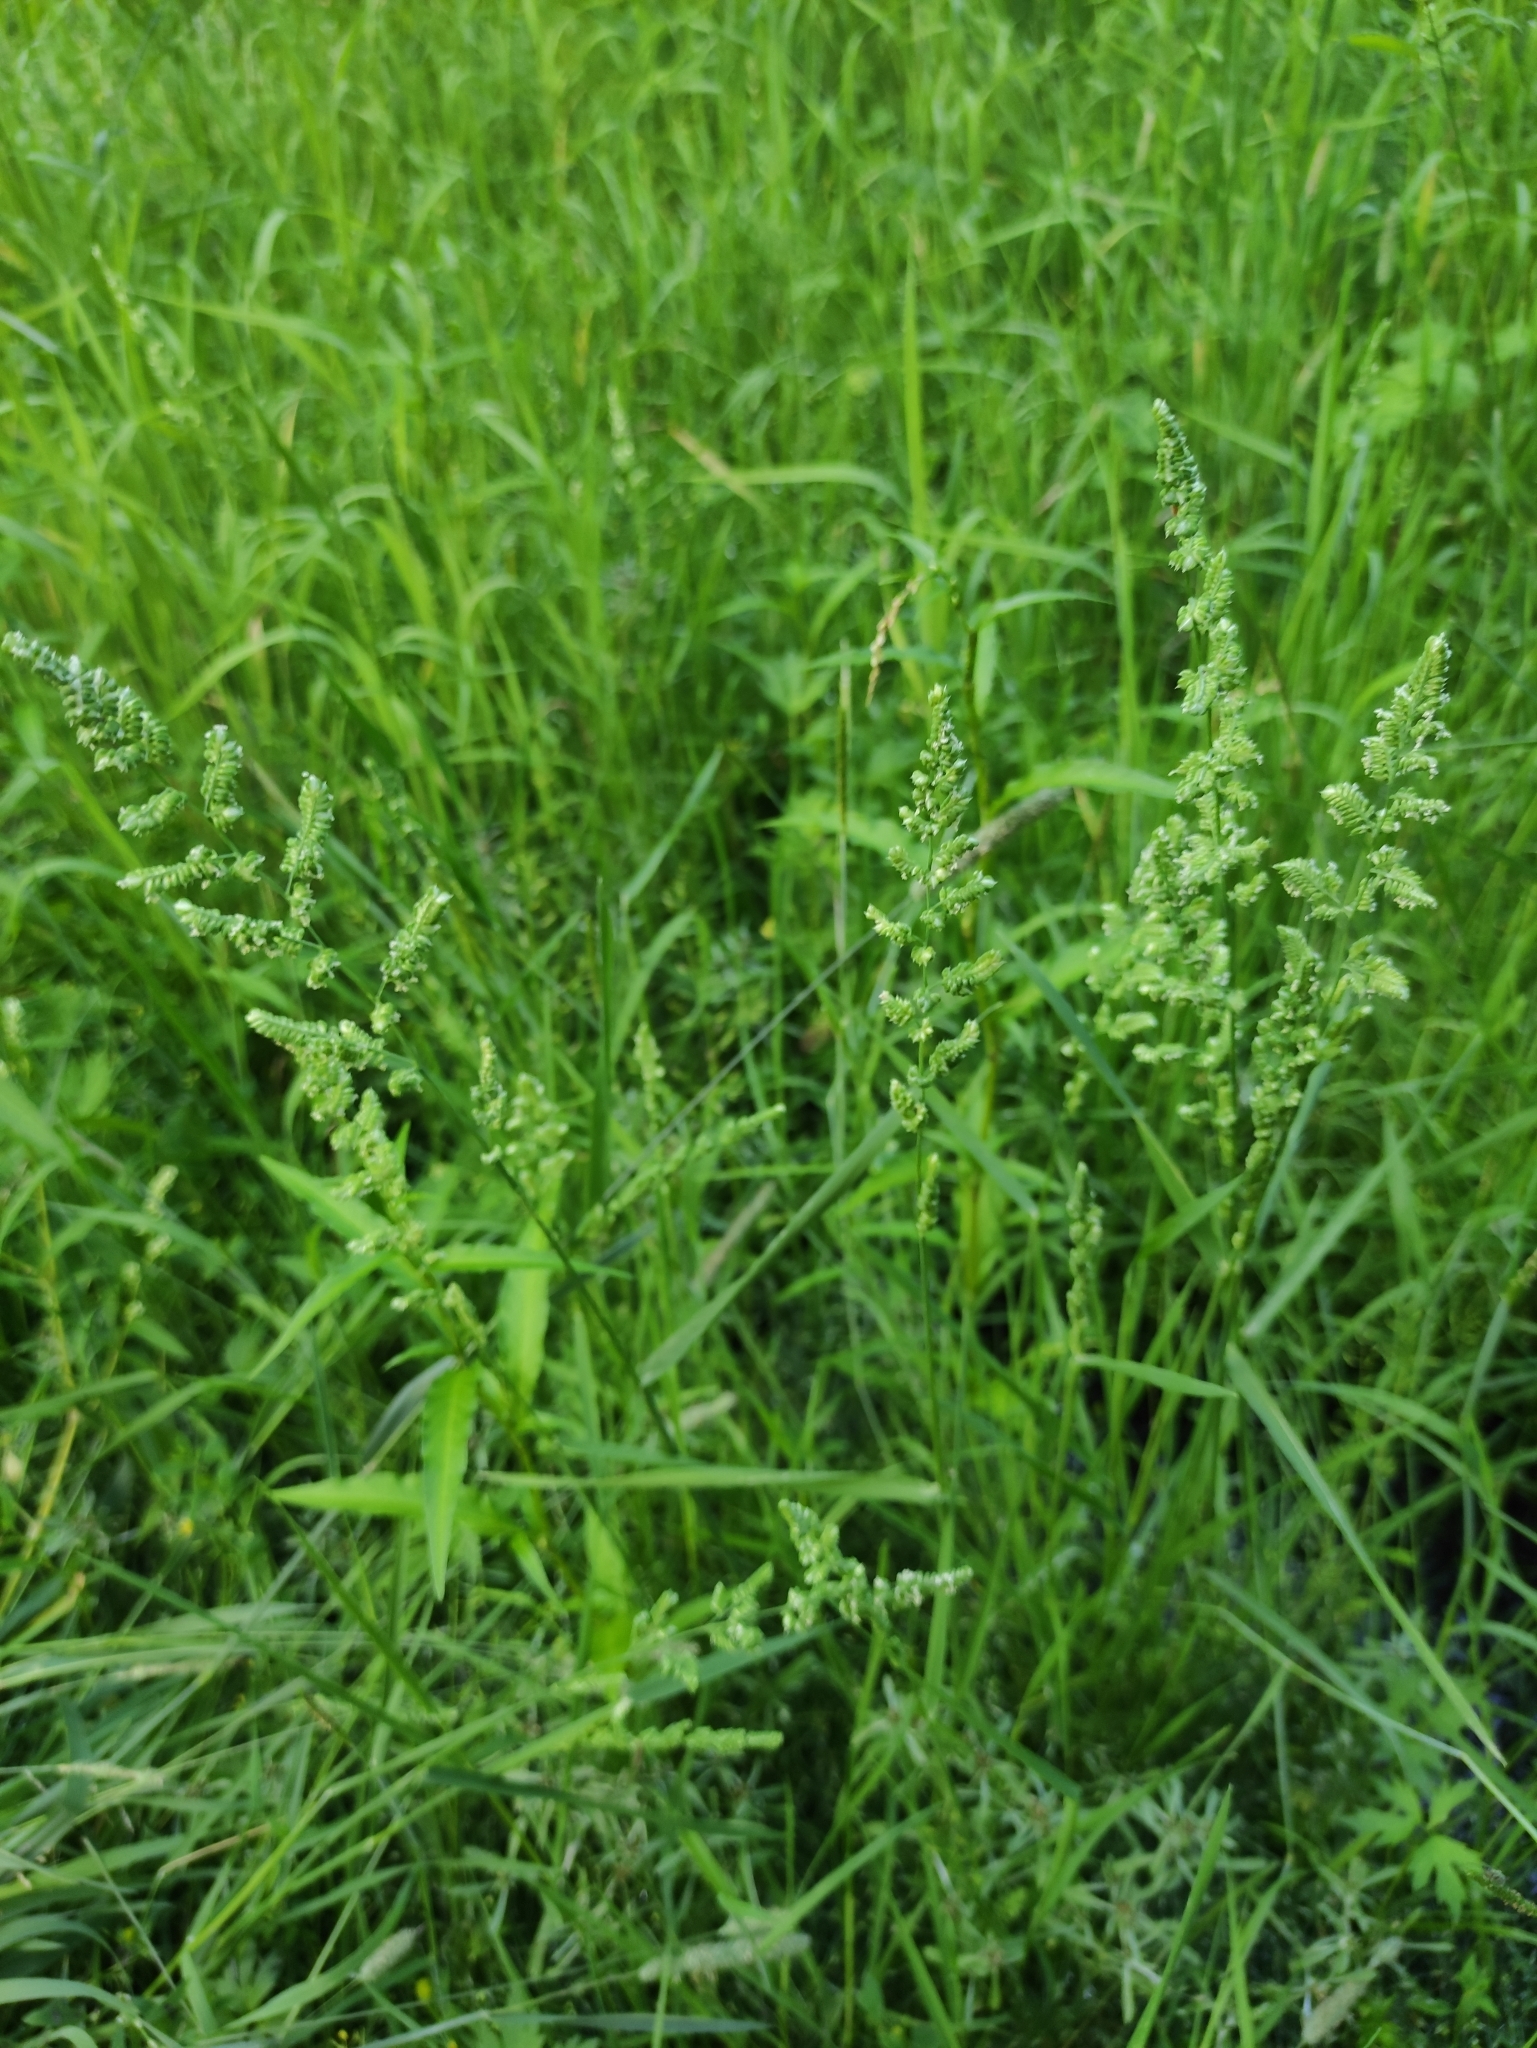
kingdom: Plantae
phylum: Tracheophyta
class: Liliopsida
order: Poales
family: Poaceae
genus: Beckmannia
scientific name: Beckmannia syzigachne
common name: American slough-grass
